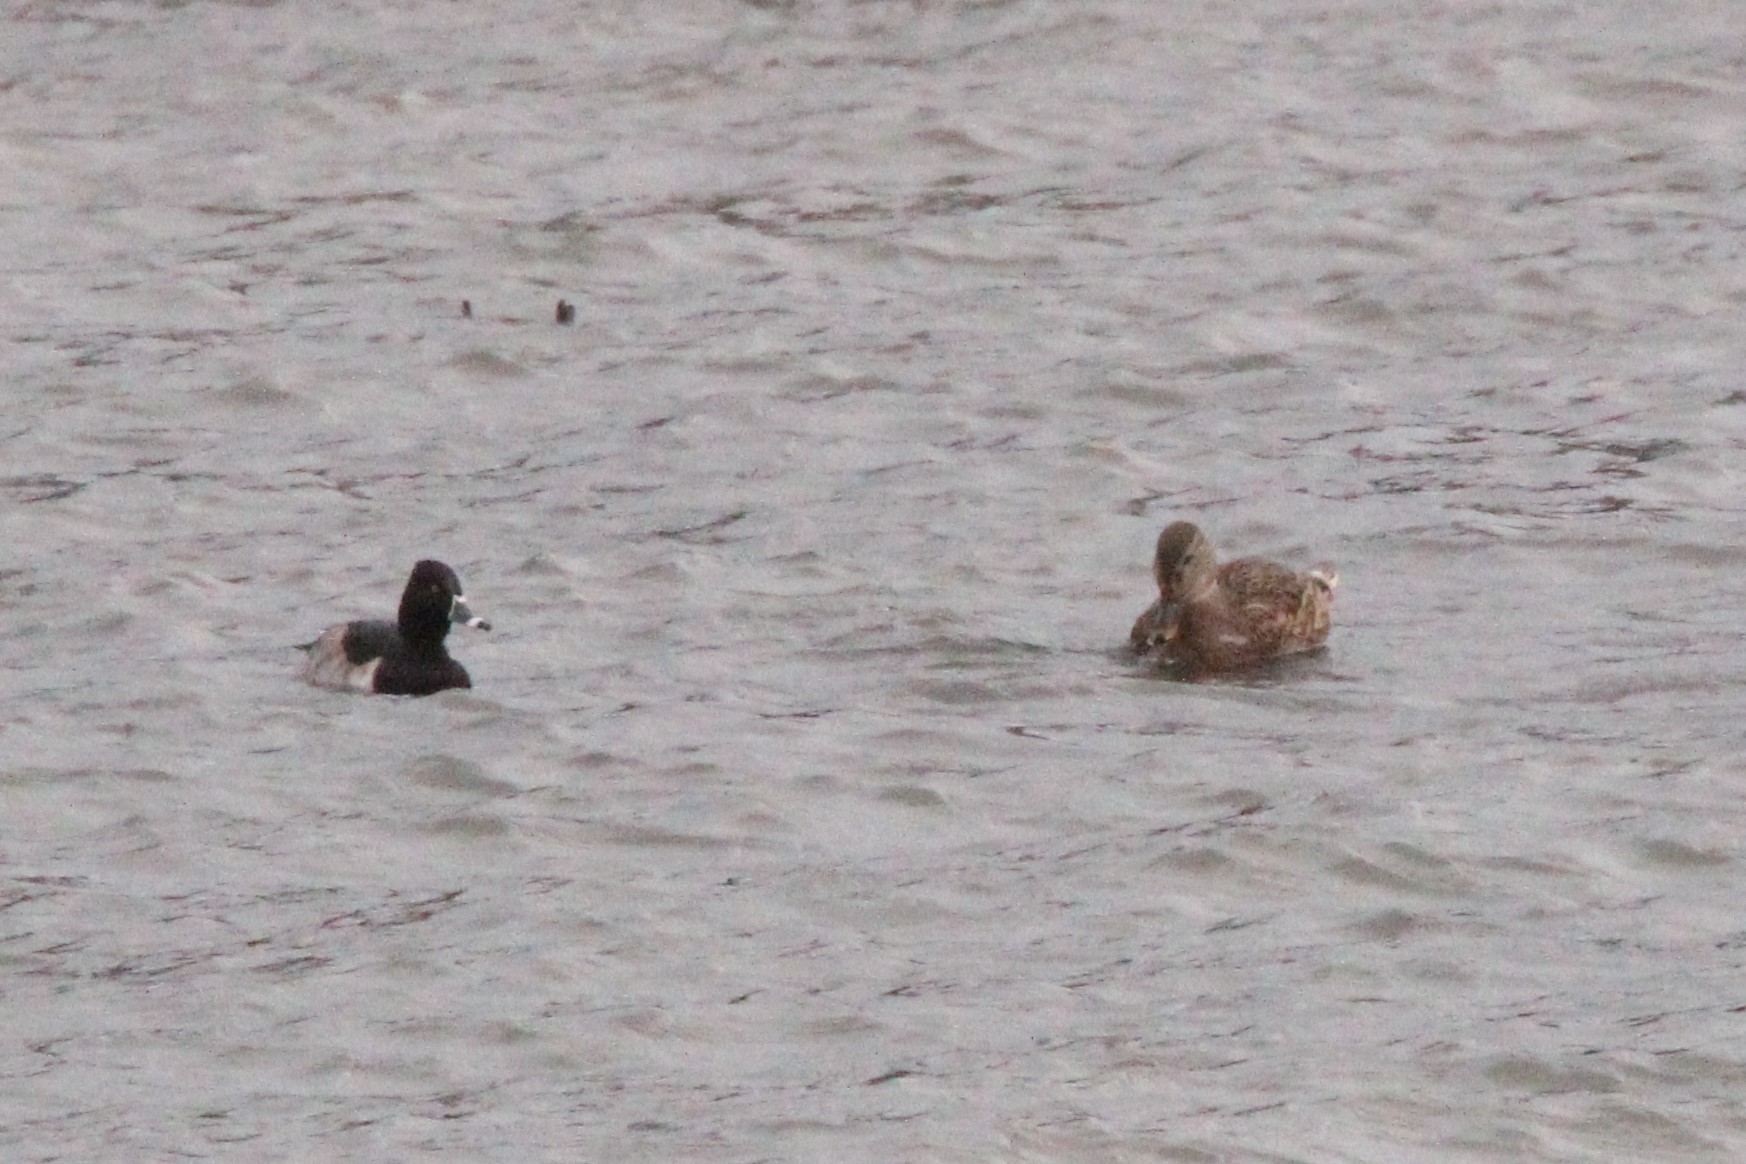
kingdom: Animalia
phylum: Chordata
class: Aves
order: Anseriformes
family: Anatidae
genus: Aythya
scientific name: Aythya collaris
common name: Ring-necked duck
